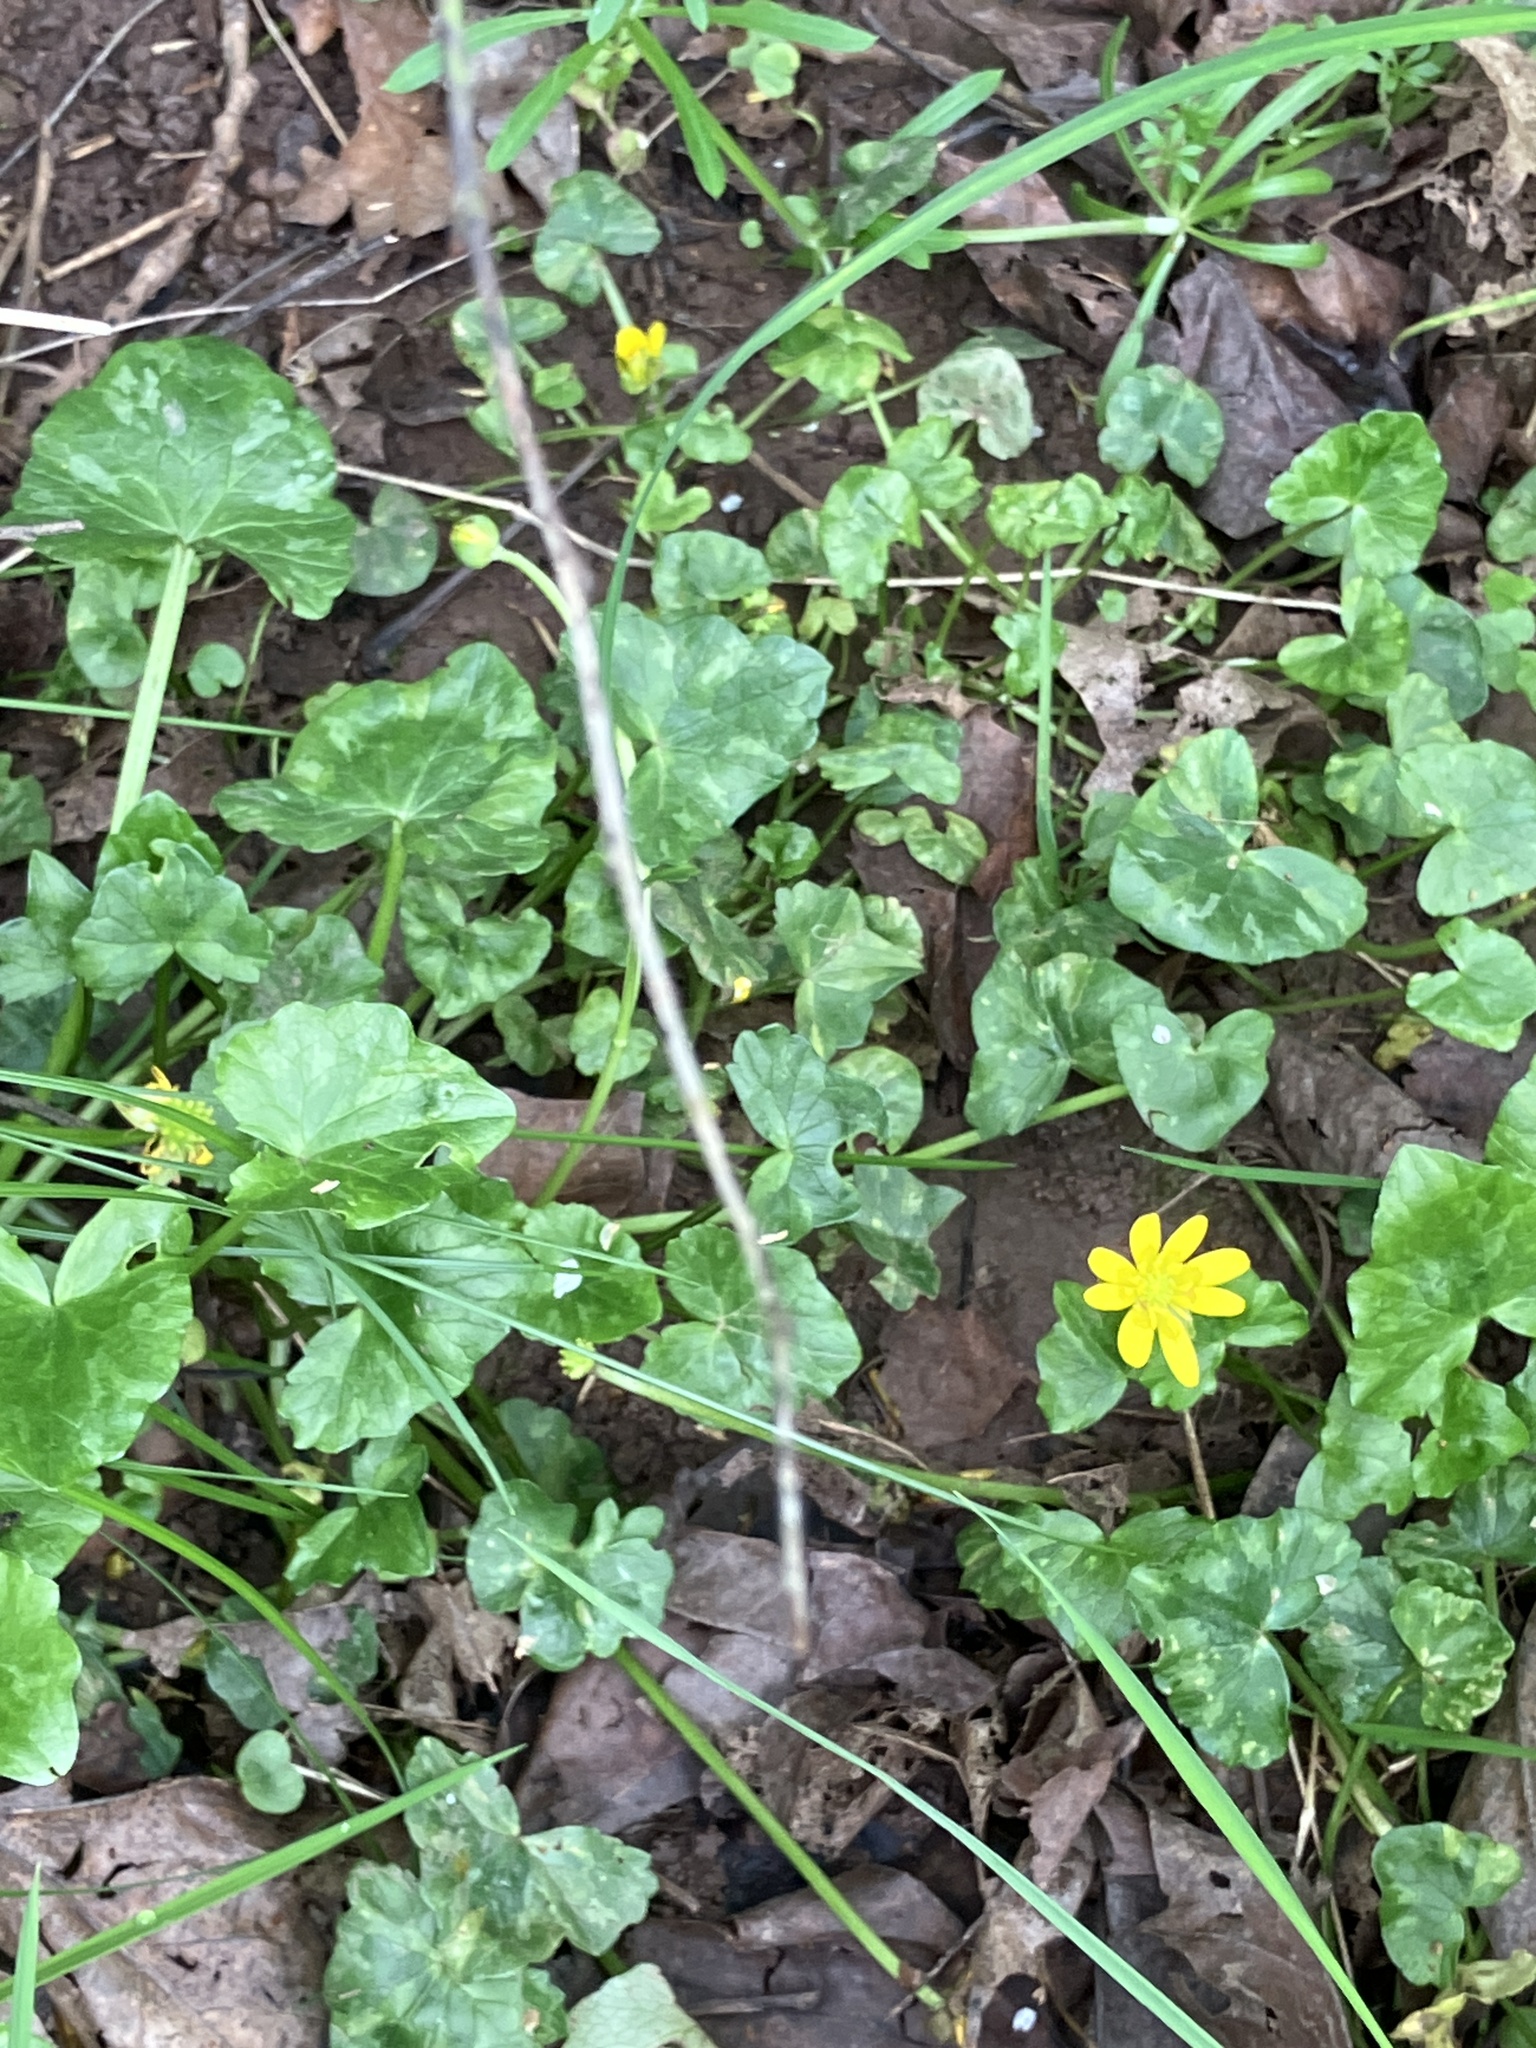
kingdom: Plantae
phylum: Tracheophyta
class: Magnoliopsida
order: Ranunculales
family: Ranunculaceae
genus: Ficaria
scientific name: Ficaria verna
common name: Lesser celandine
